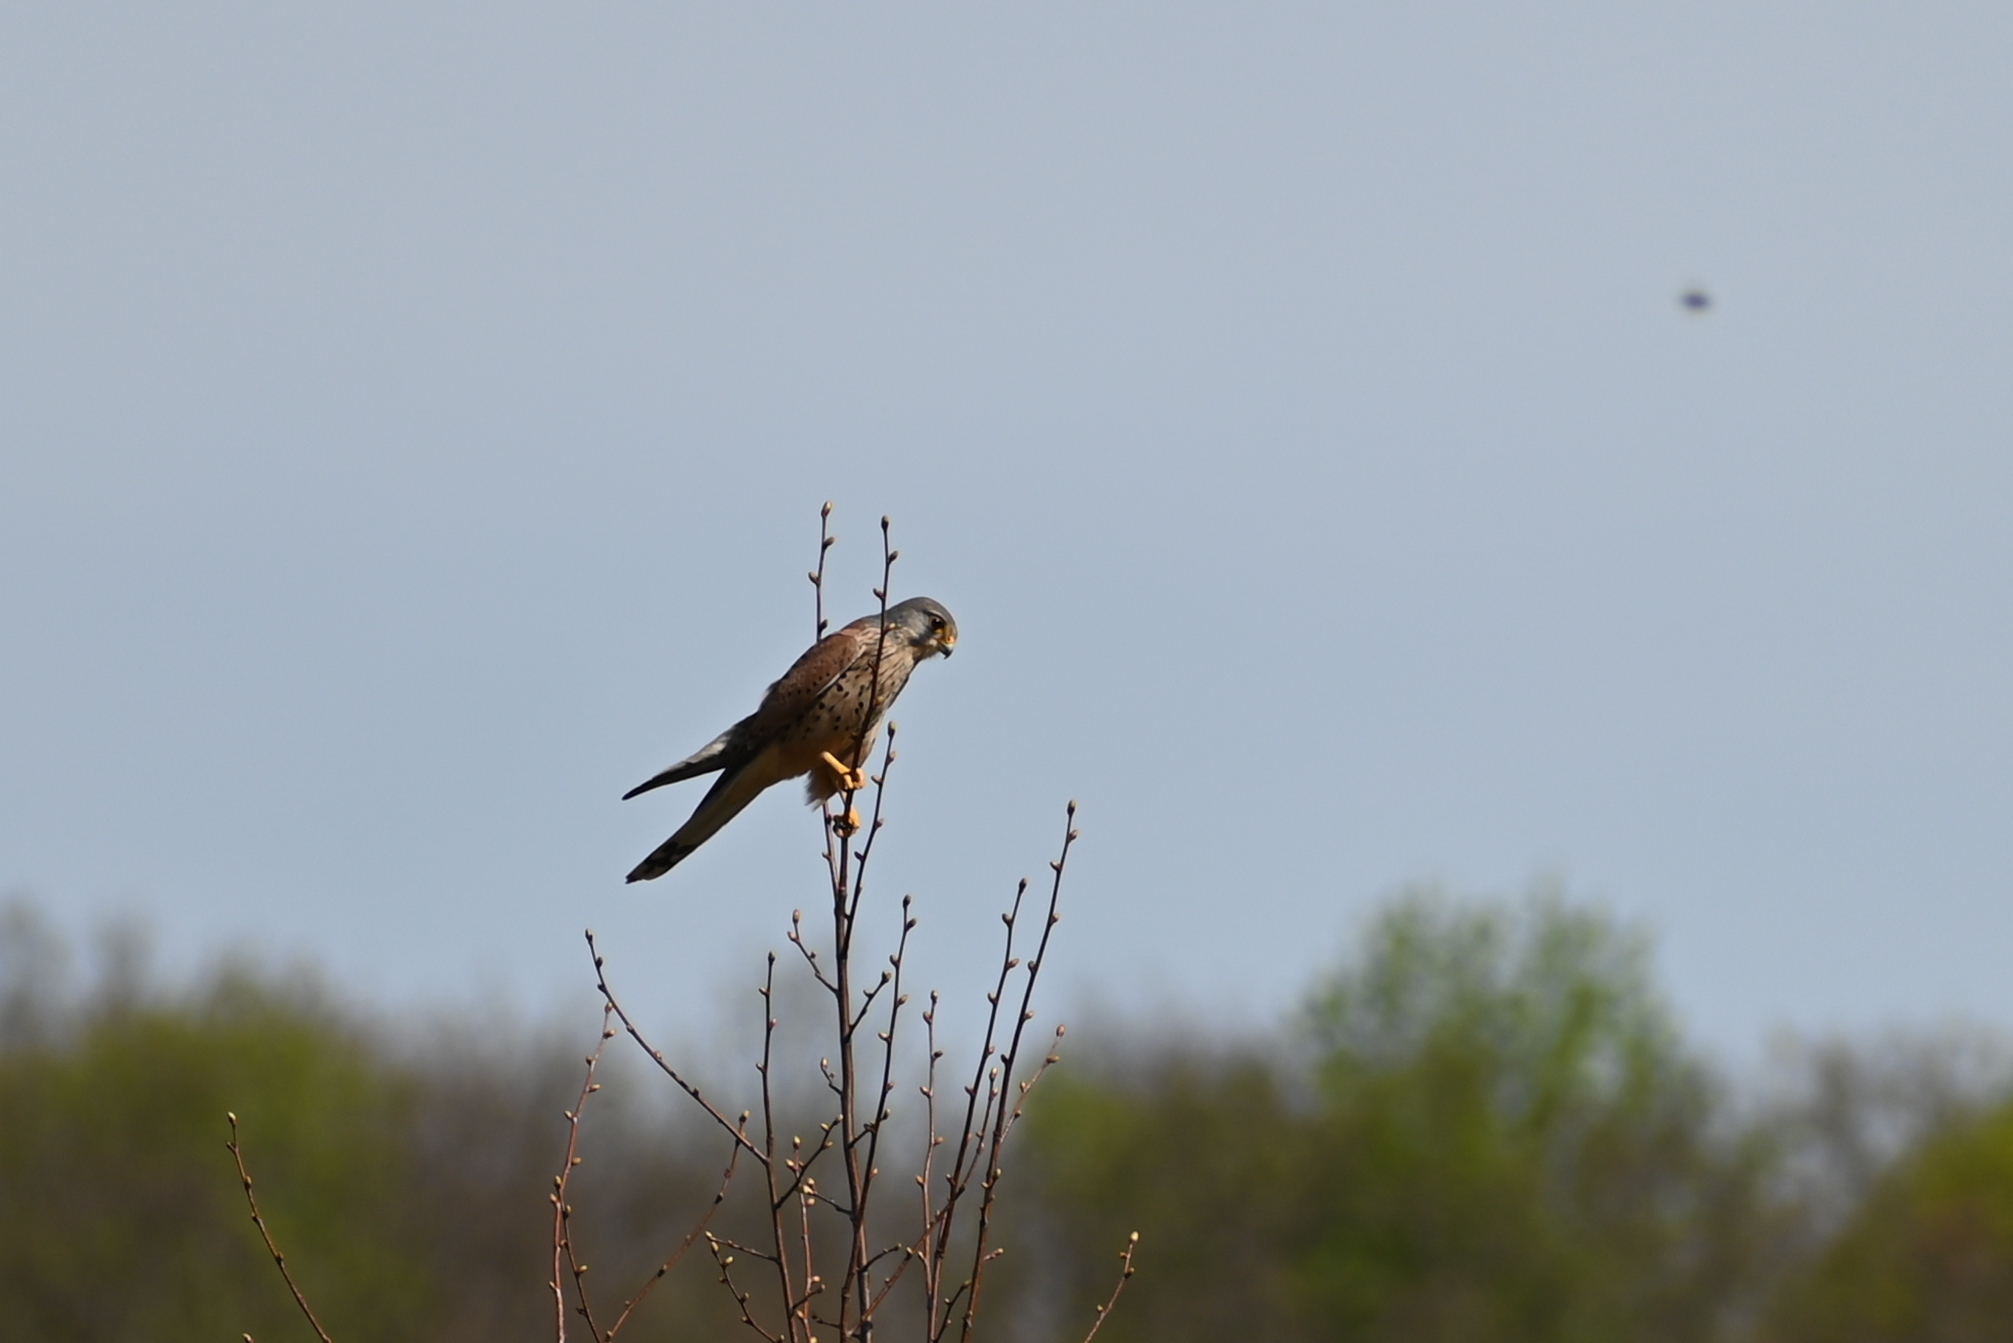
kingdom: Animalia
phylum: Chordata
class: Aves
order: Falconiformes
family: Falconidae
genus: Falco
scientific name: Falco tinnunculus
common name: Common kestrel
